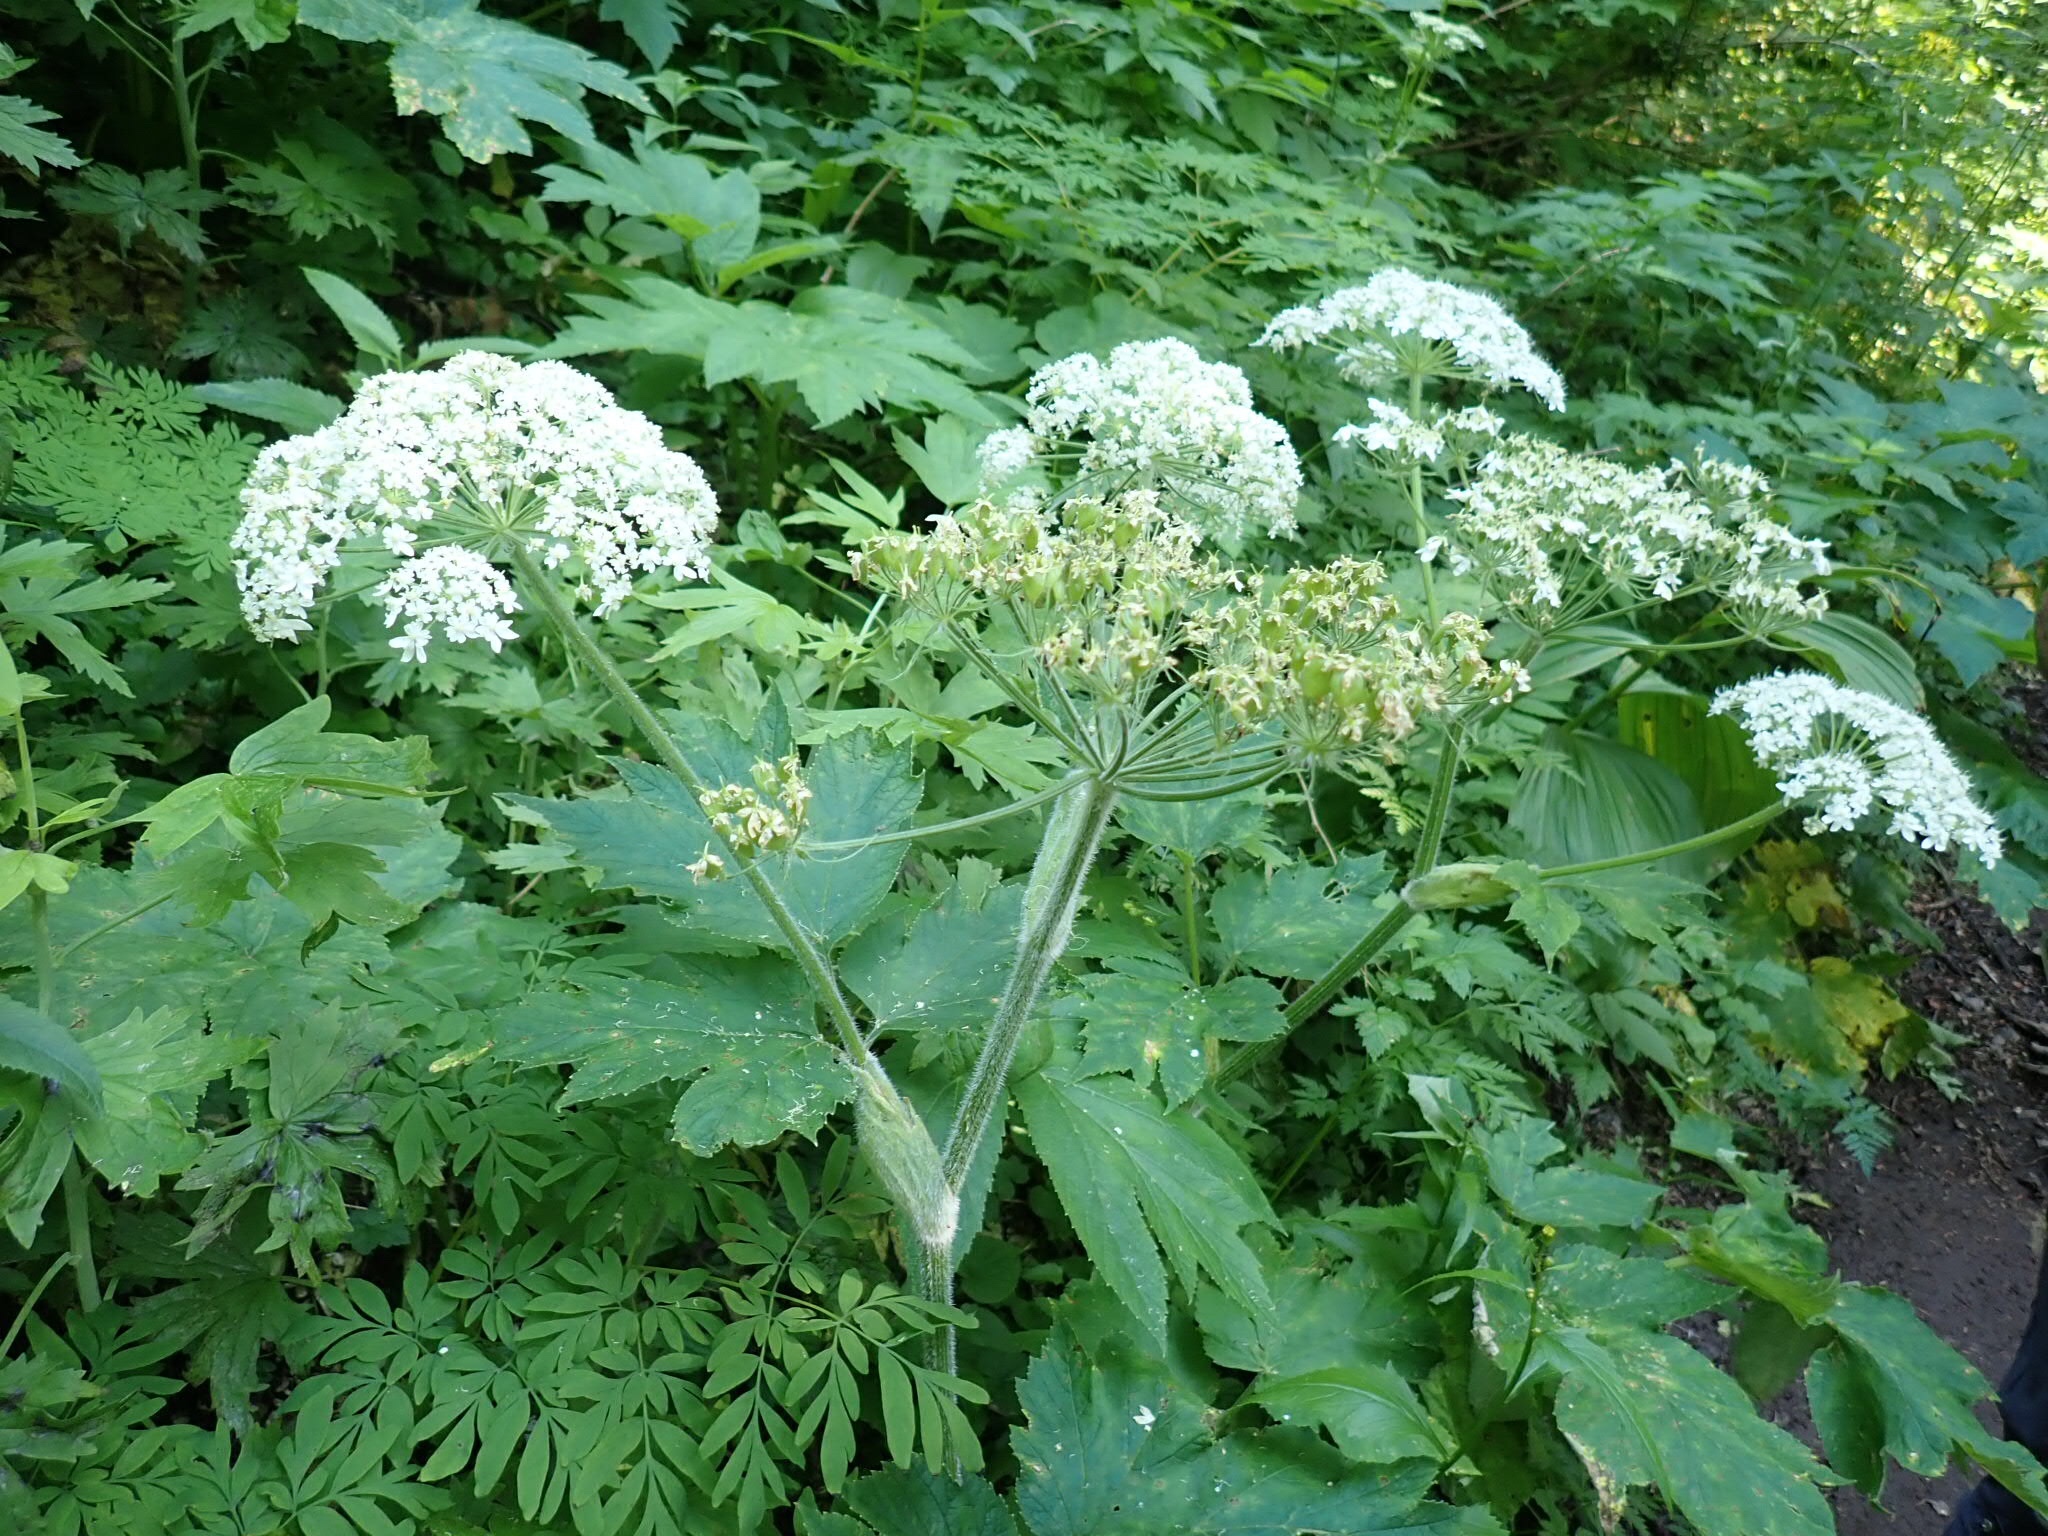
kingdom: Plantae
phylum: Tracheophyta
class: Magnoliopsida
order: Apiales
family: Apiaceae
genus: Heracleum
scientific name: Heracleum maximum
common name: American cow parsnip
